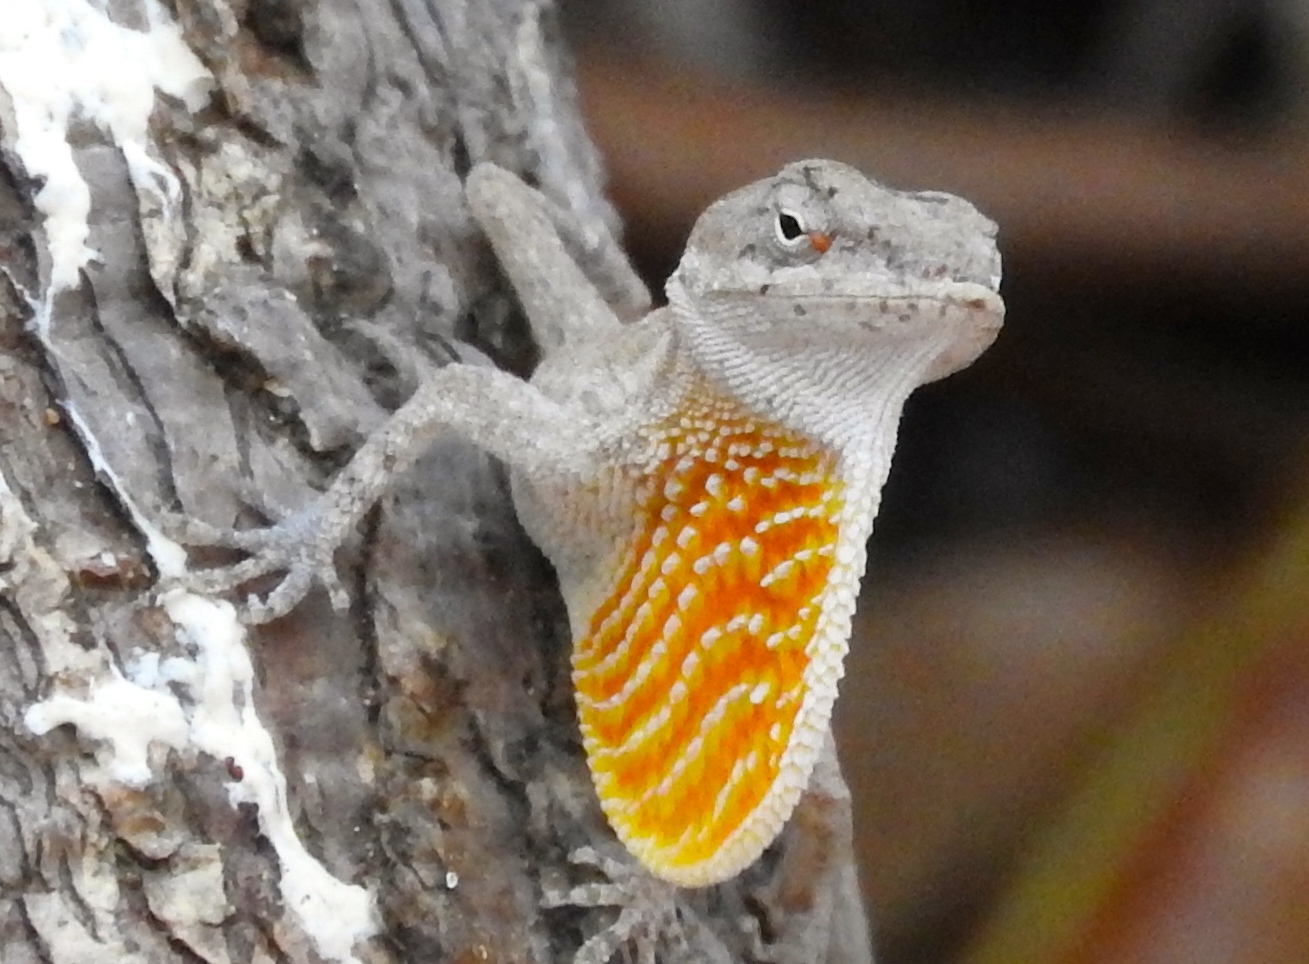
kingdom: Animalia
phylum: Chordata
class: Squamata
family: Dactyloidae
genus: Anolis
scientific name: Anolis nebulosus
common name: Clouded anole
